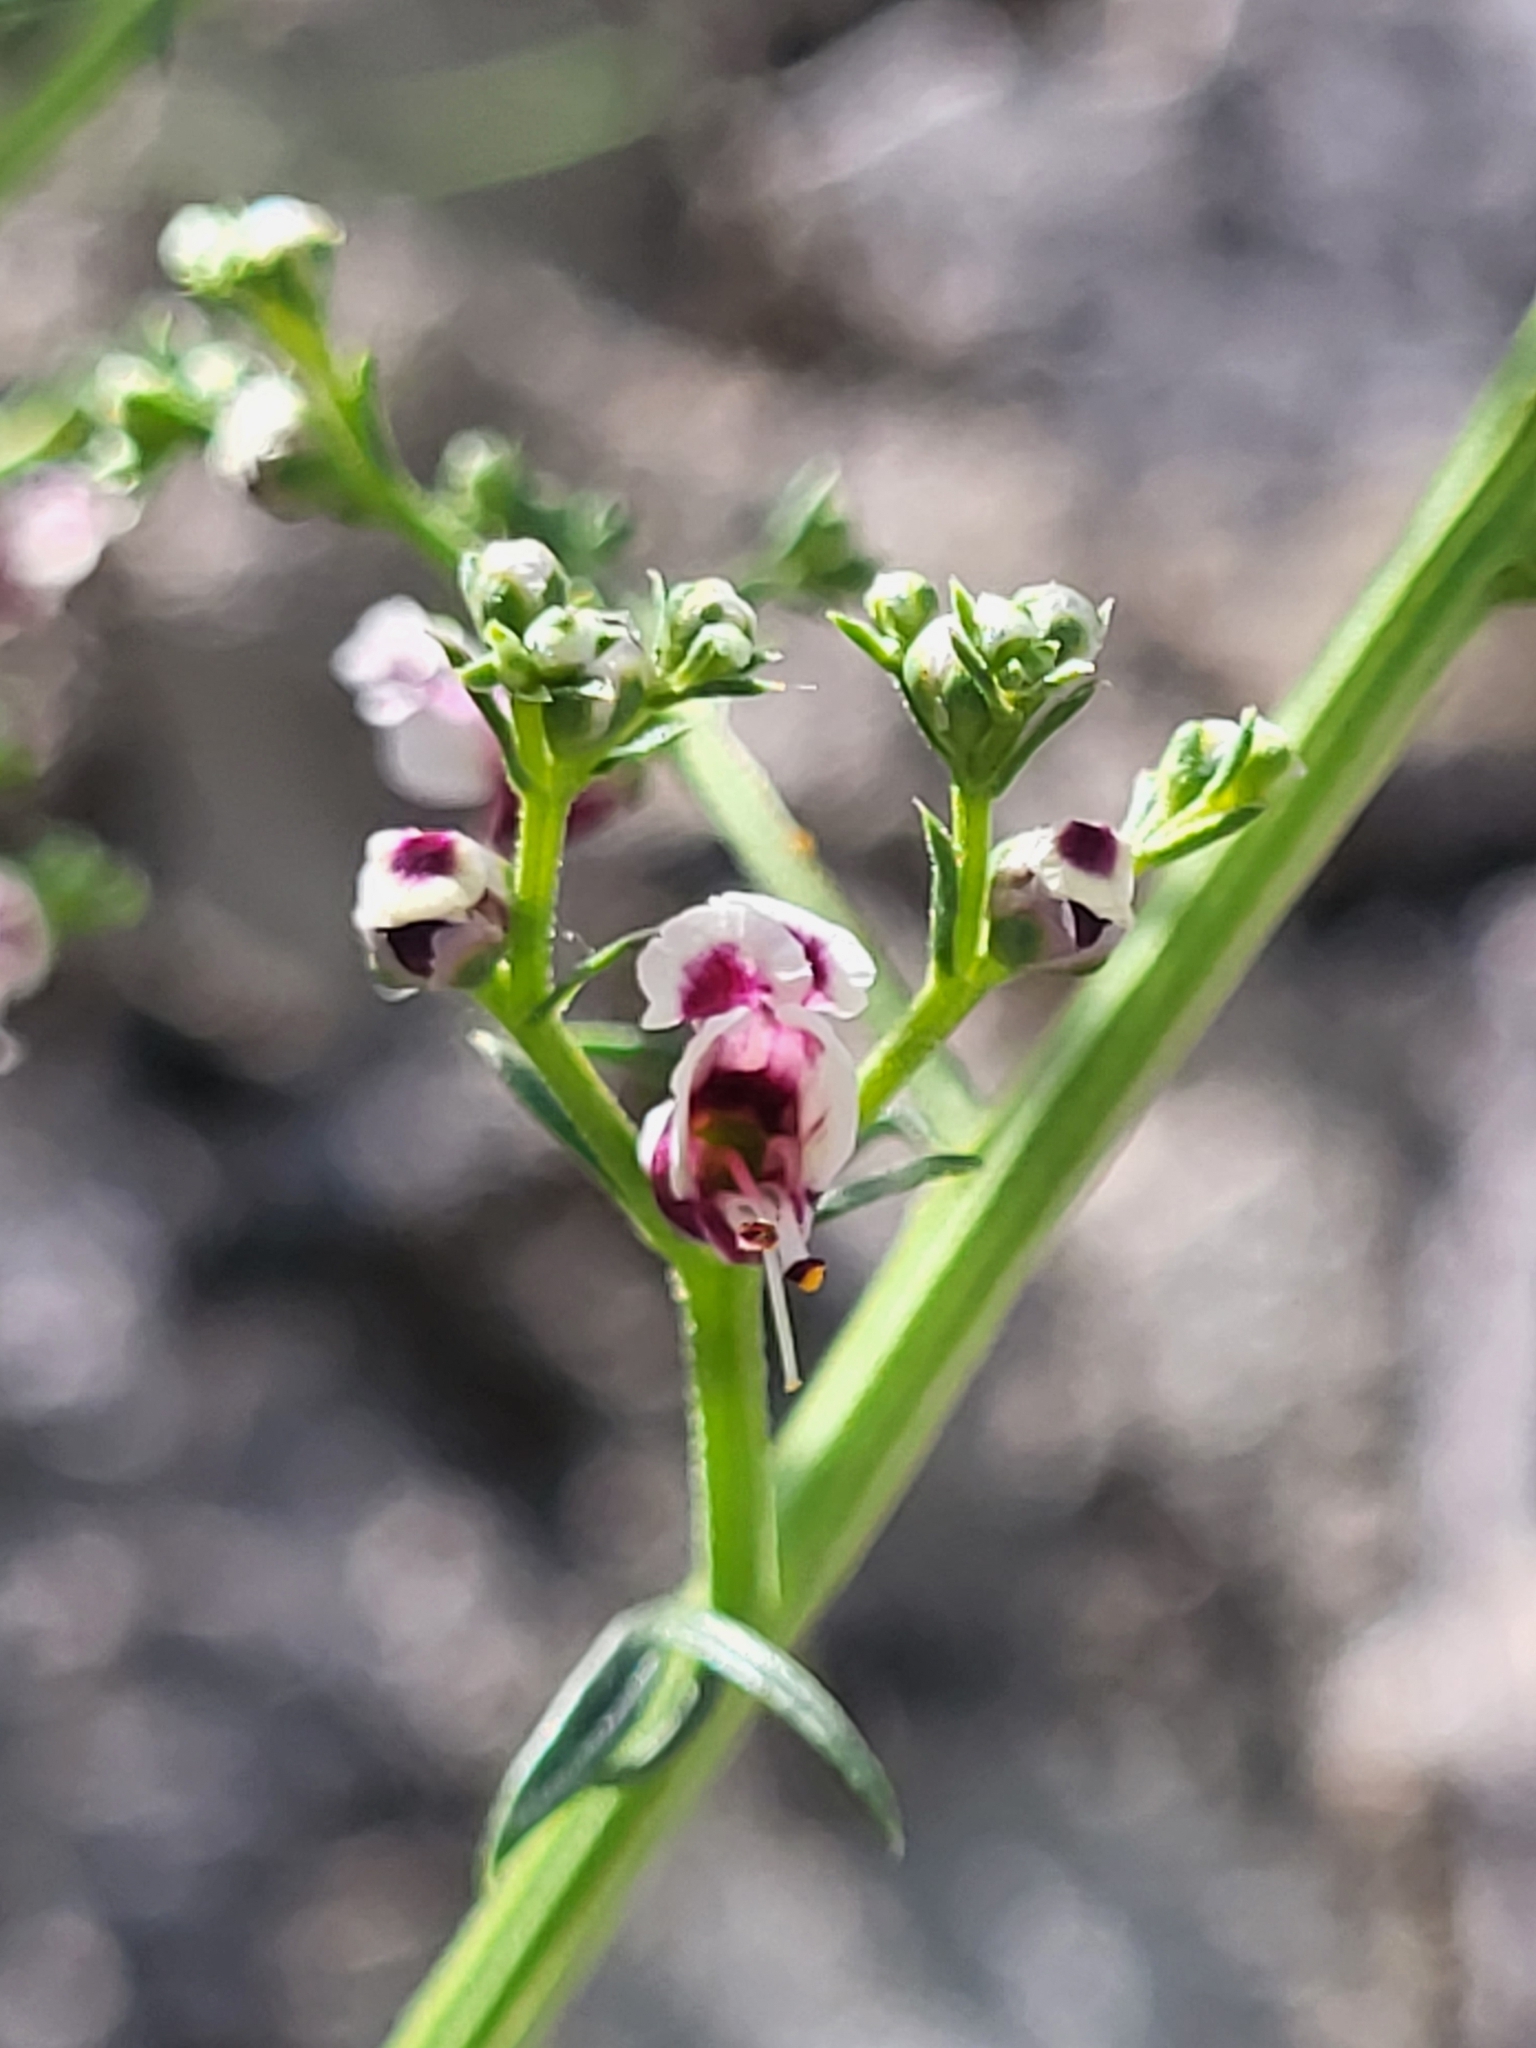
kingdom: Plantae
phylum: Tracheophyta
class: Magnoliopsida
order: Lamiales
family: Scrophulariaceae
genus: Scrophularia
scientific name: Scrophularia canina
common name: French figwort
